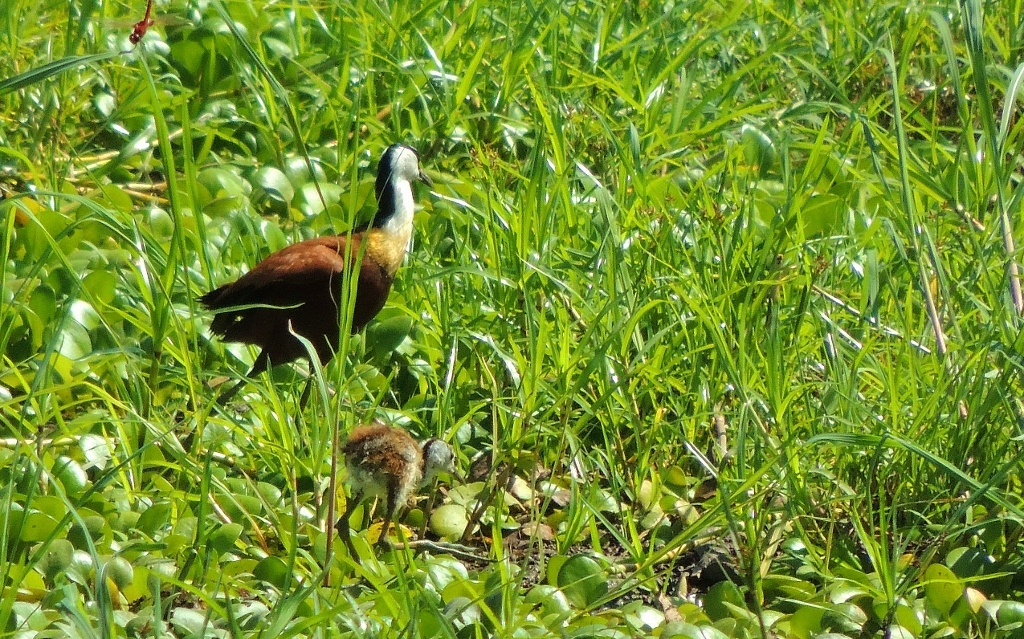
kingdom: Animalia
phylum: Chordata
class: Aves
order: Charadriiformes
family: Jacanidae
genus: Actophilornis
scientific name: Actophilornis africanus
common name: African jacana
